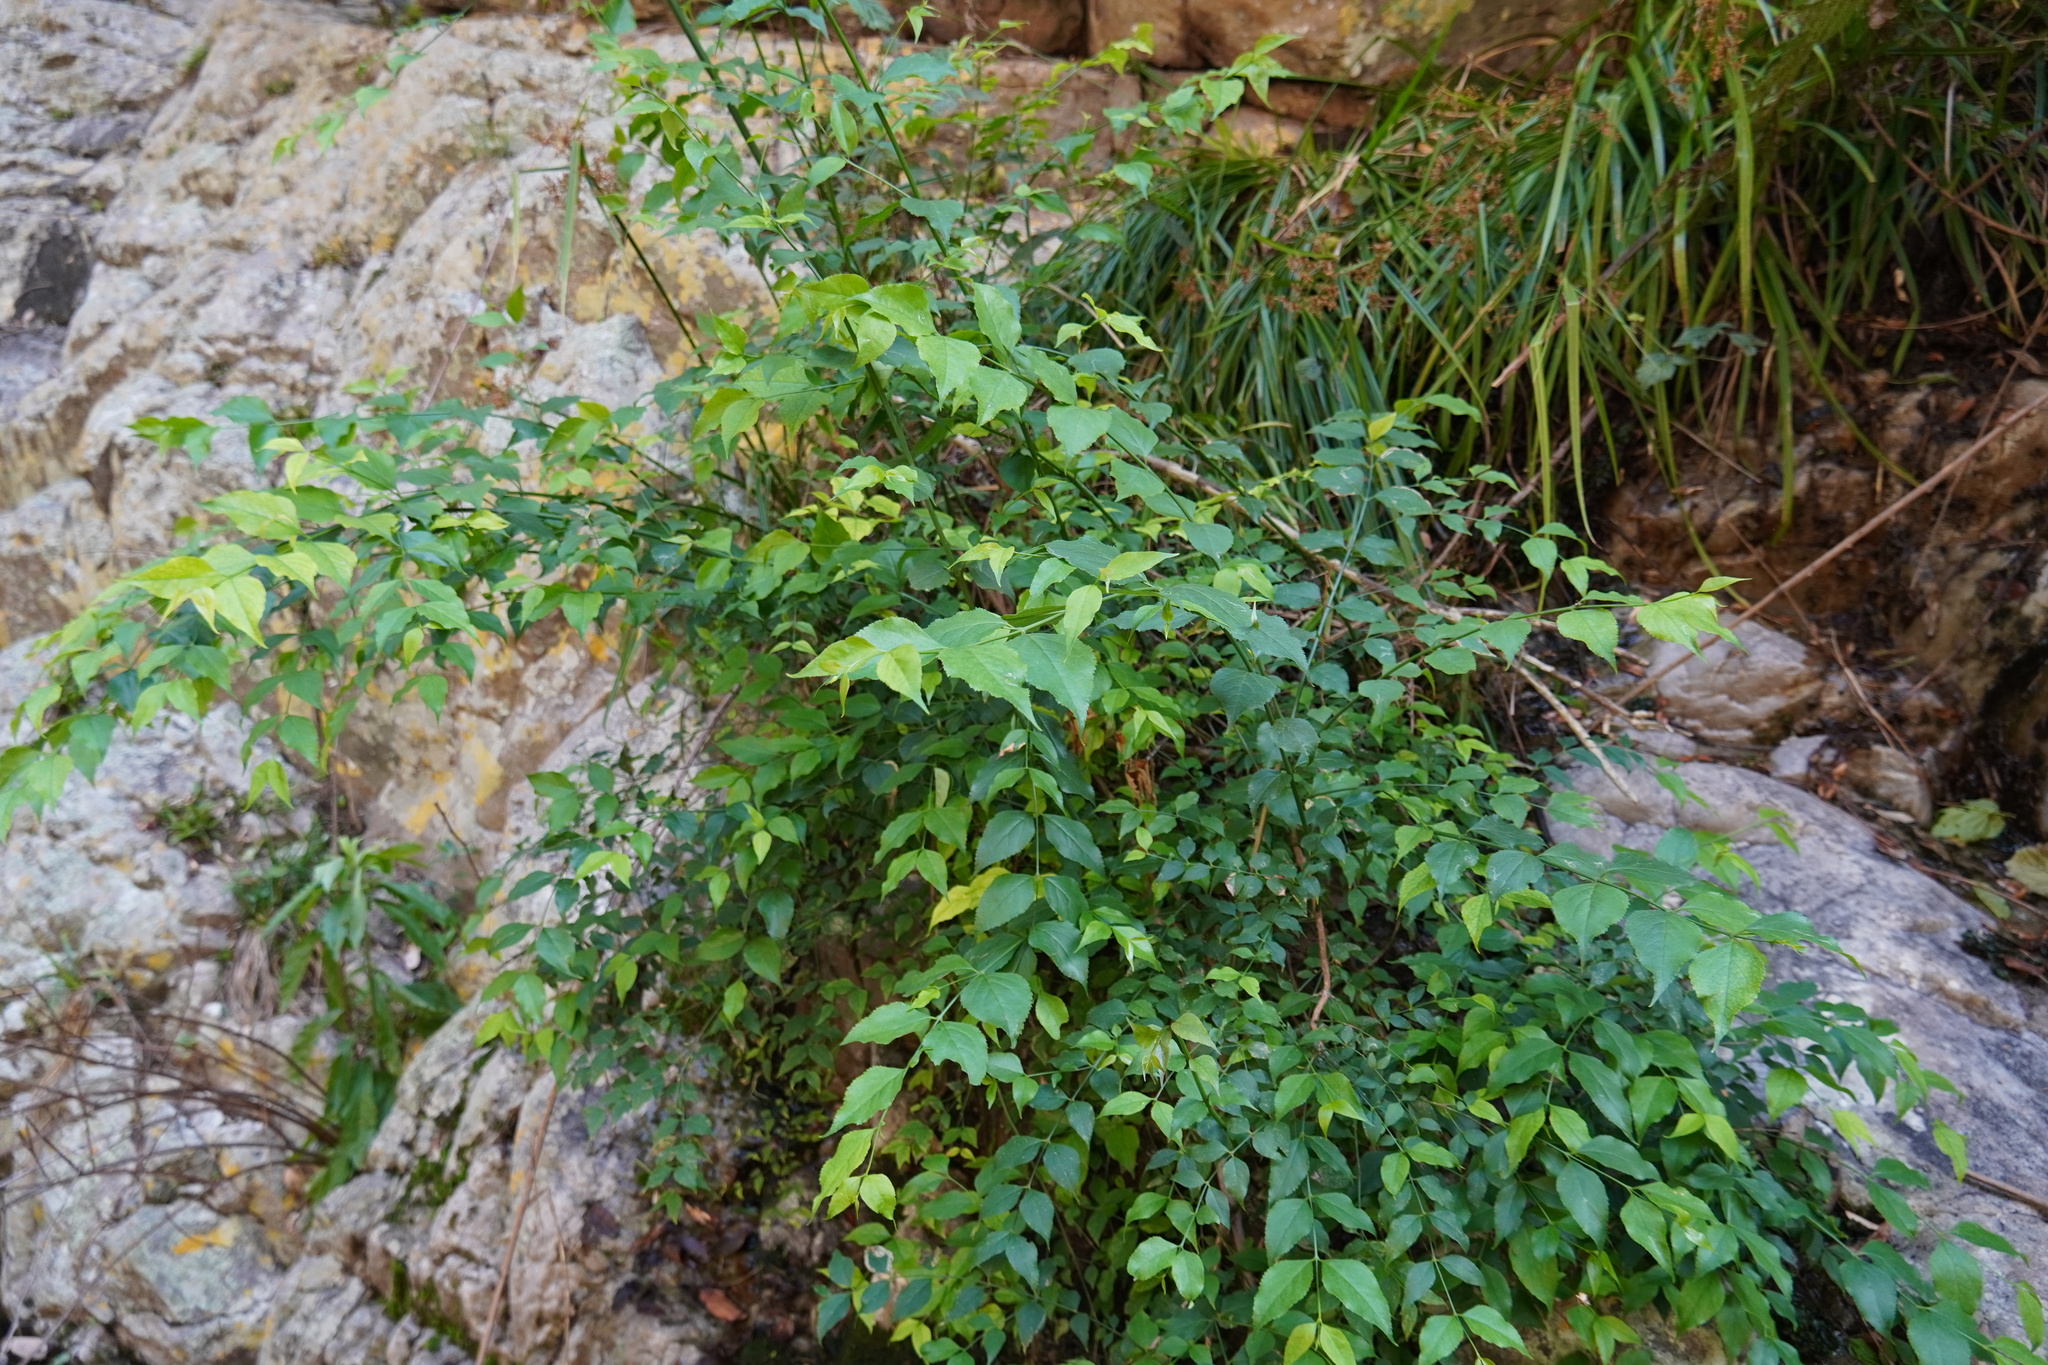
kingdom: Plantae
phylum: Tracheophyta
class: Magnoliopsida
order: Lamiales
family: Stilbaceae
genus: Halleria
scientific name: Halleria lucida
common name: Tree fuschia
